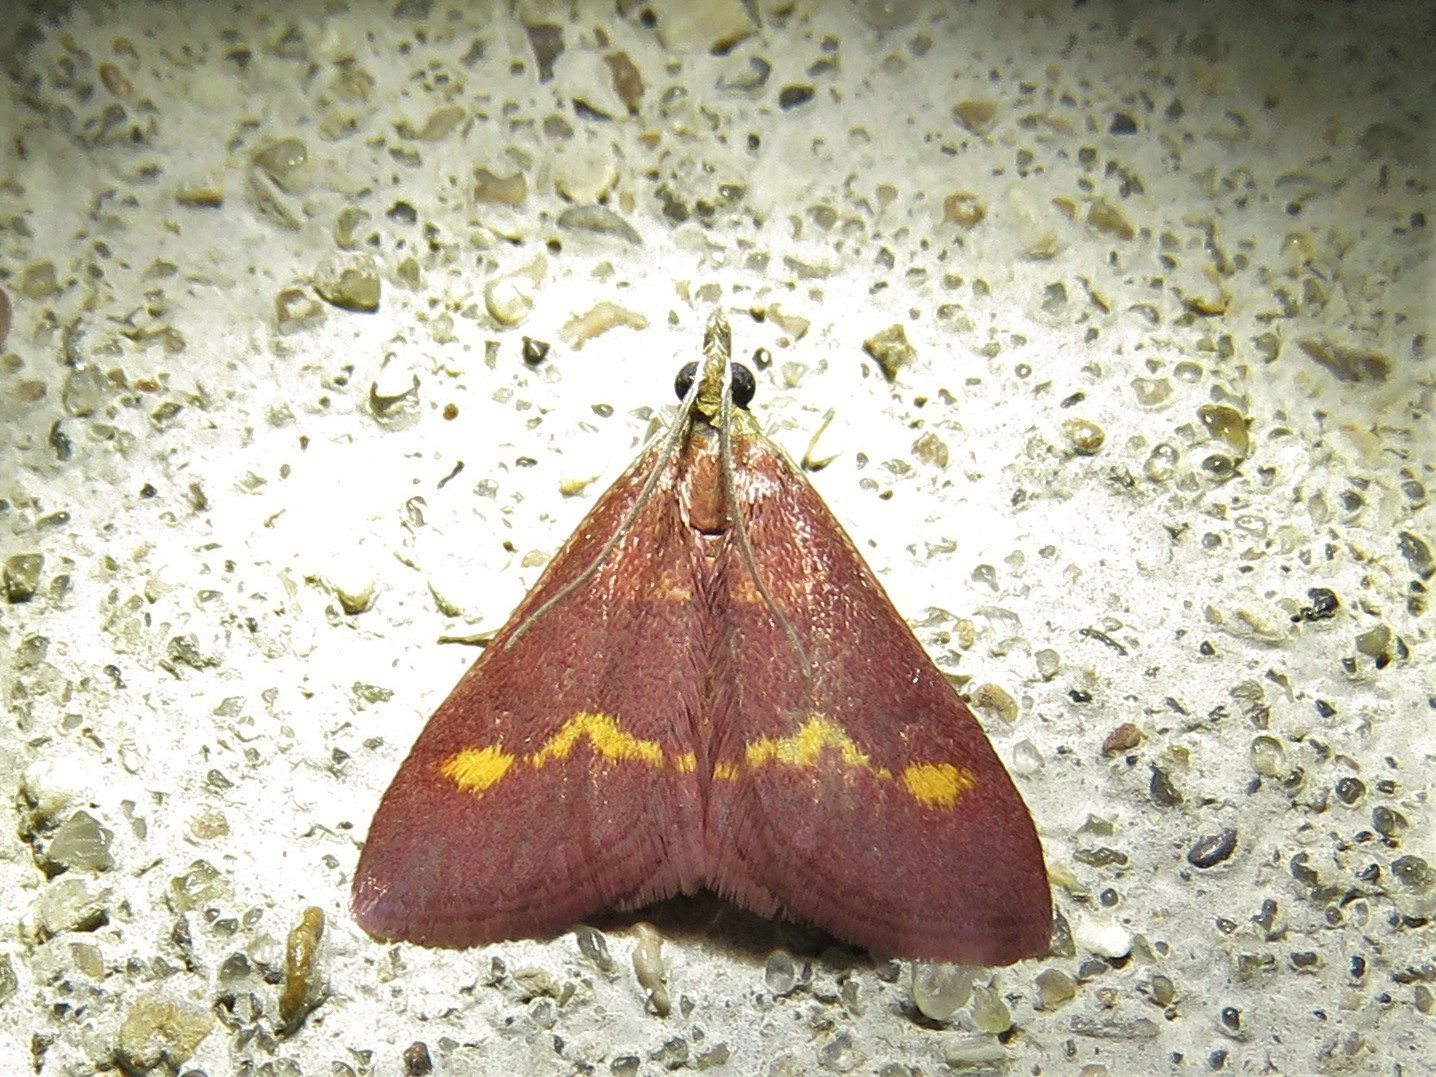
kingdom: Animalia
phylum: Arthropoda
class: Insecta
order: Lepidoptera
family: Crambidae
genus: Pyrausta
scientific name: Pyrausta pseuderosnealis
